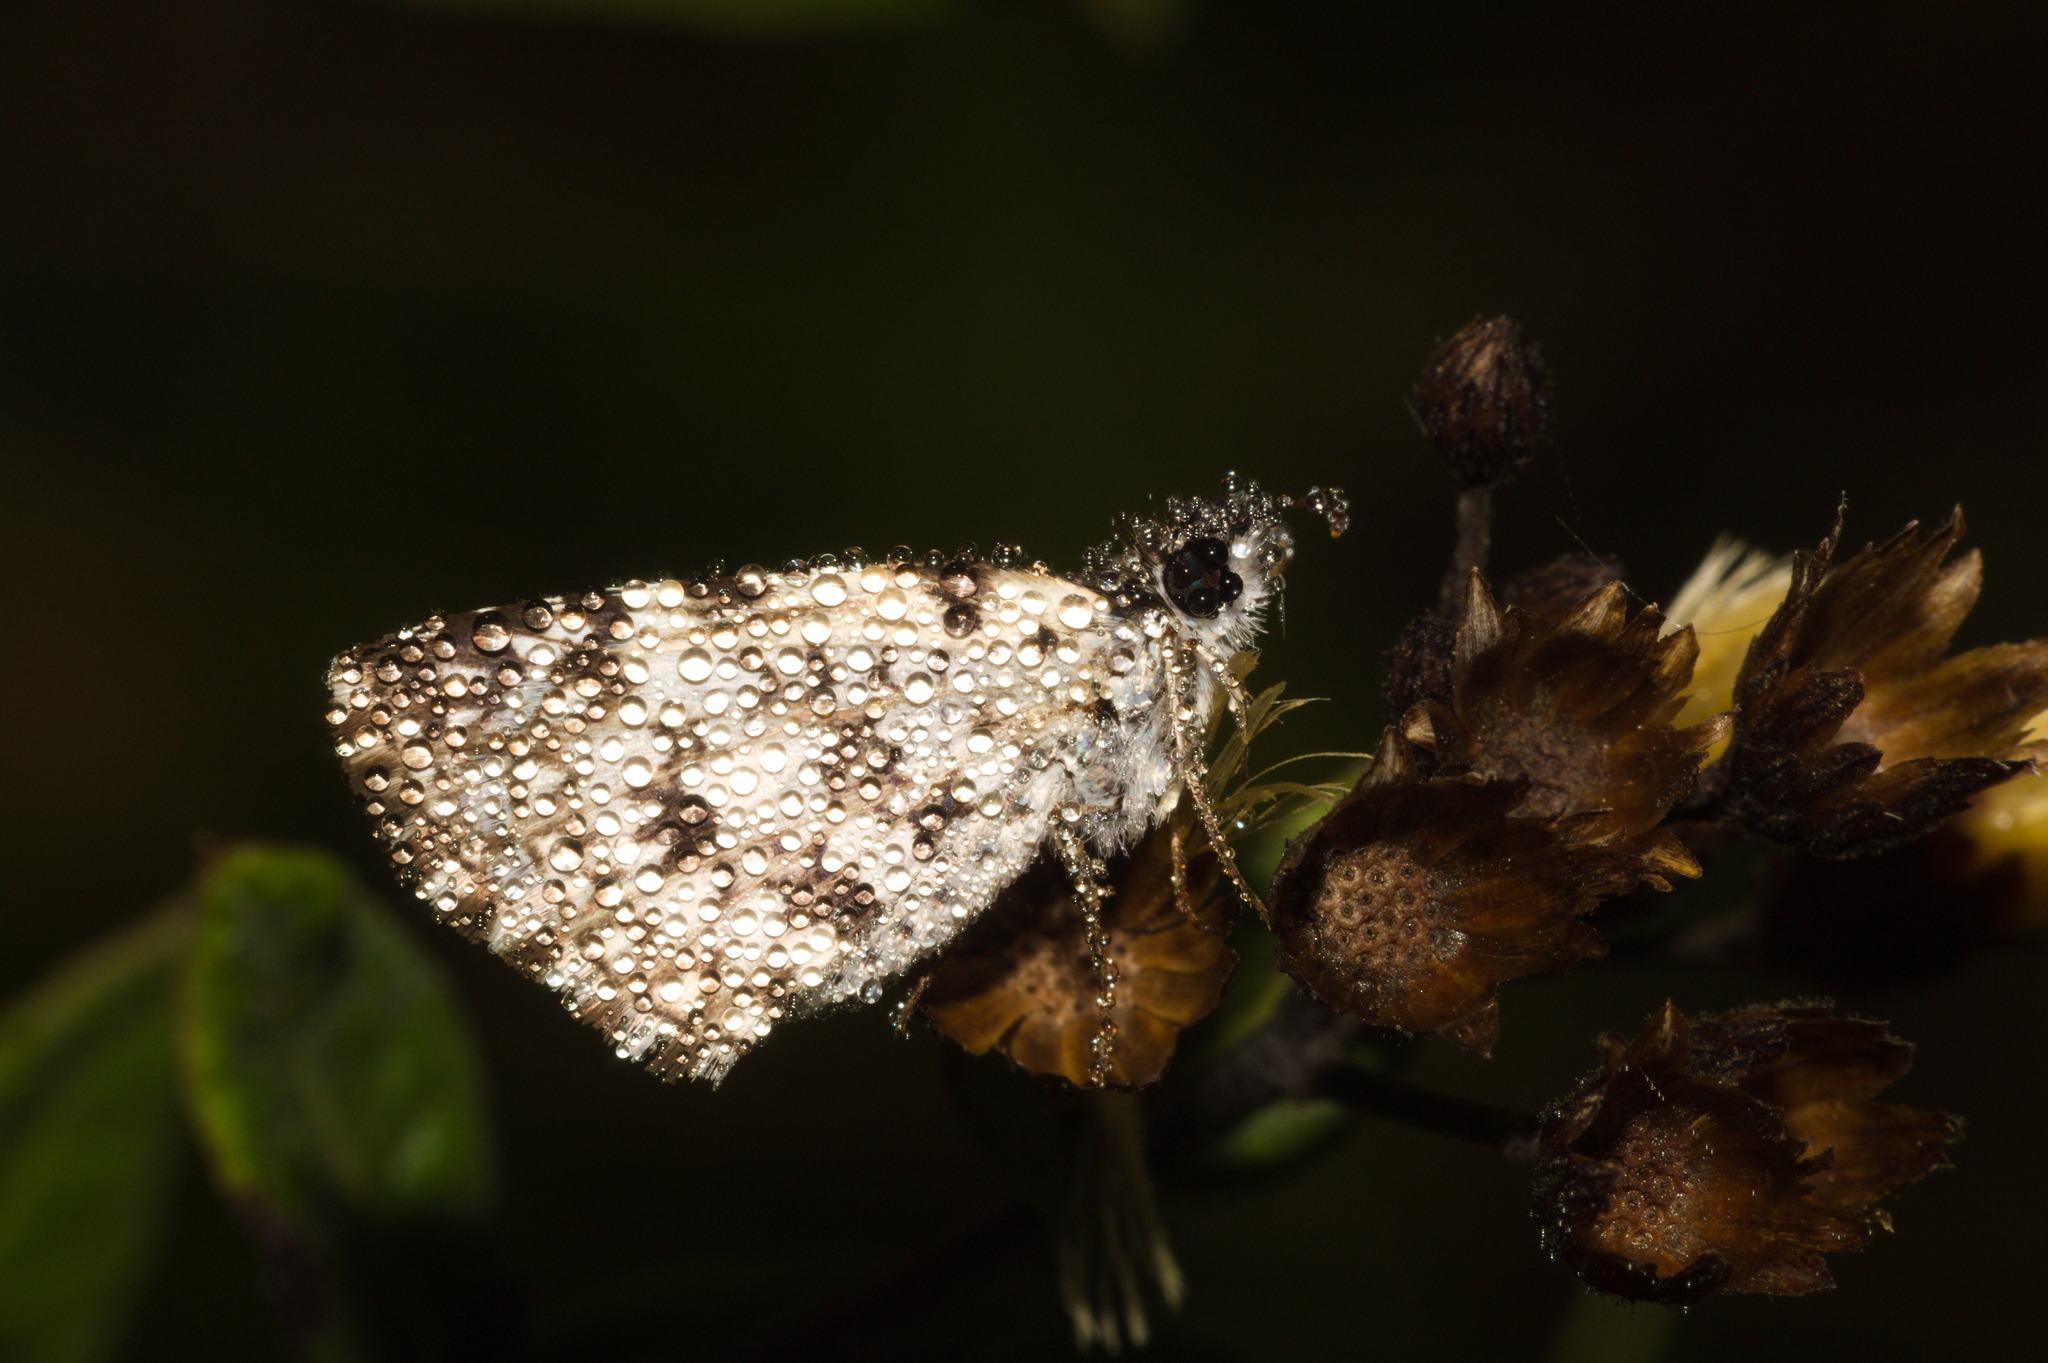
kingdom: Animalia
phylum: Arthropoda
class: Insecta
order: Lepidoptera
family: Hesperiidae
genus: Pyrgus
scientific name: Pyrgus oileus
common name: Tropical checkered-skipper
